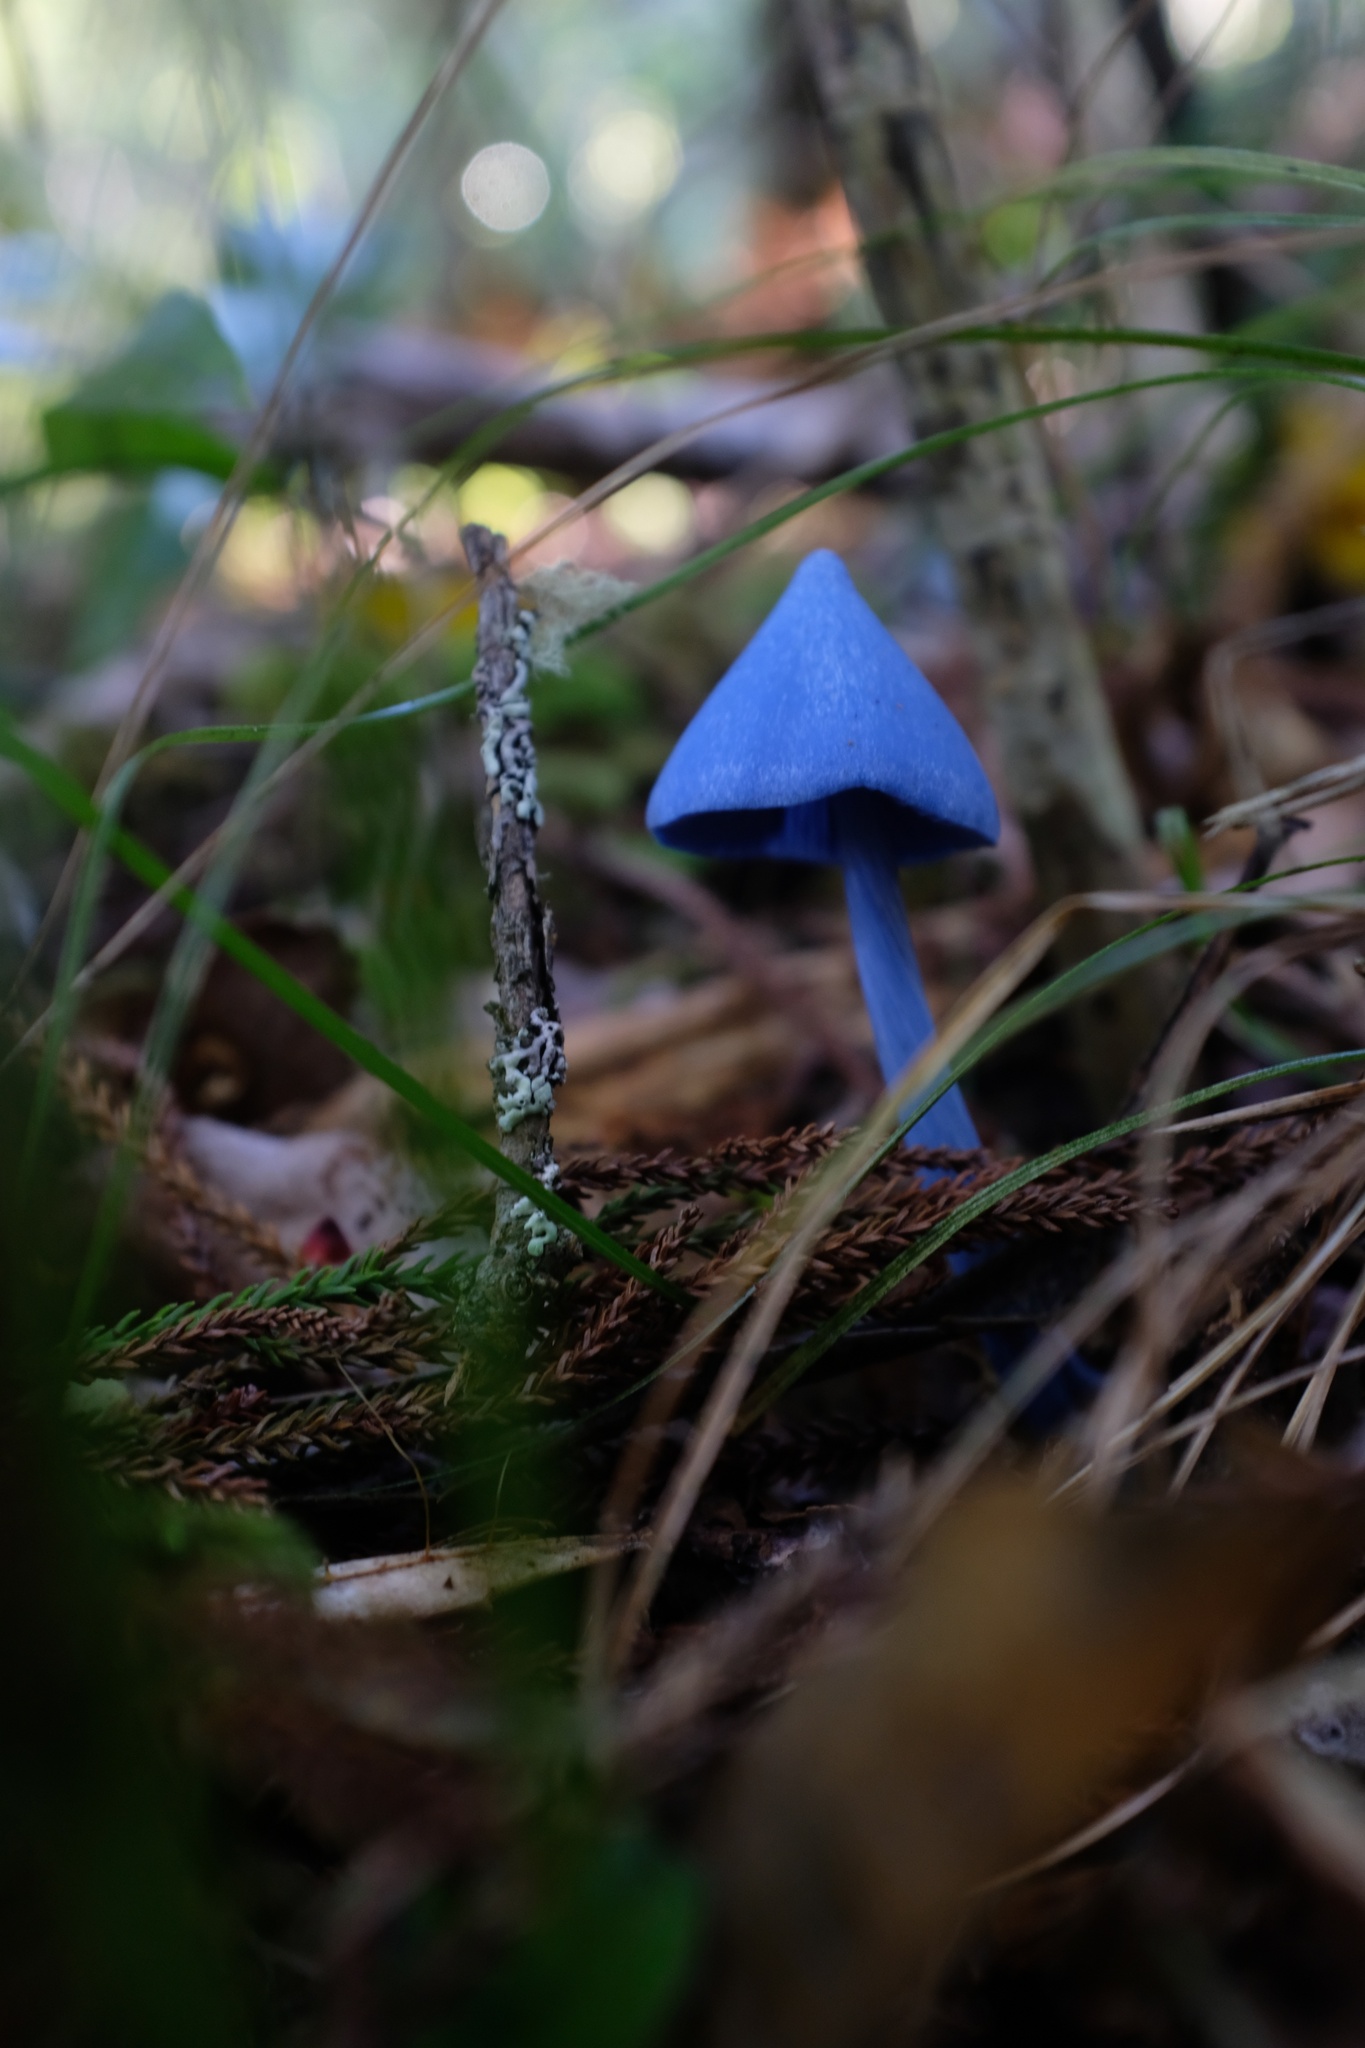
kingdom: Fungi
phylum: Basidiomycota
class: Agaricomycetes
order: Agaricales
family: Entolomataceae
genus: Entoloma
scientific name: Entoloma hochstetteri
